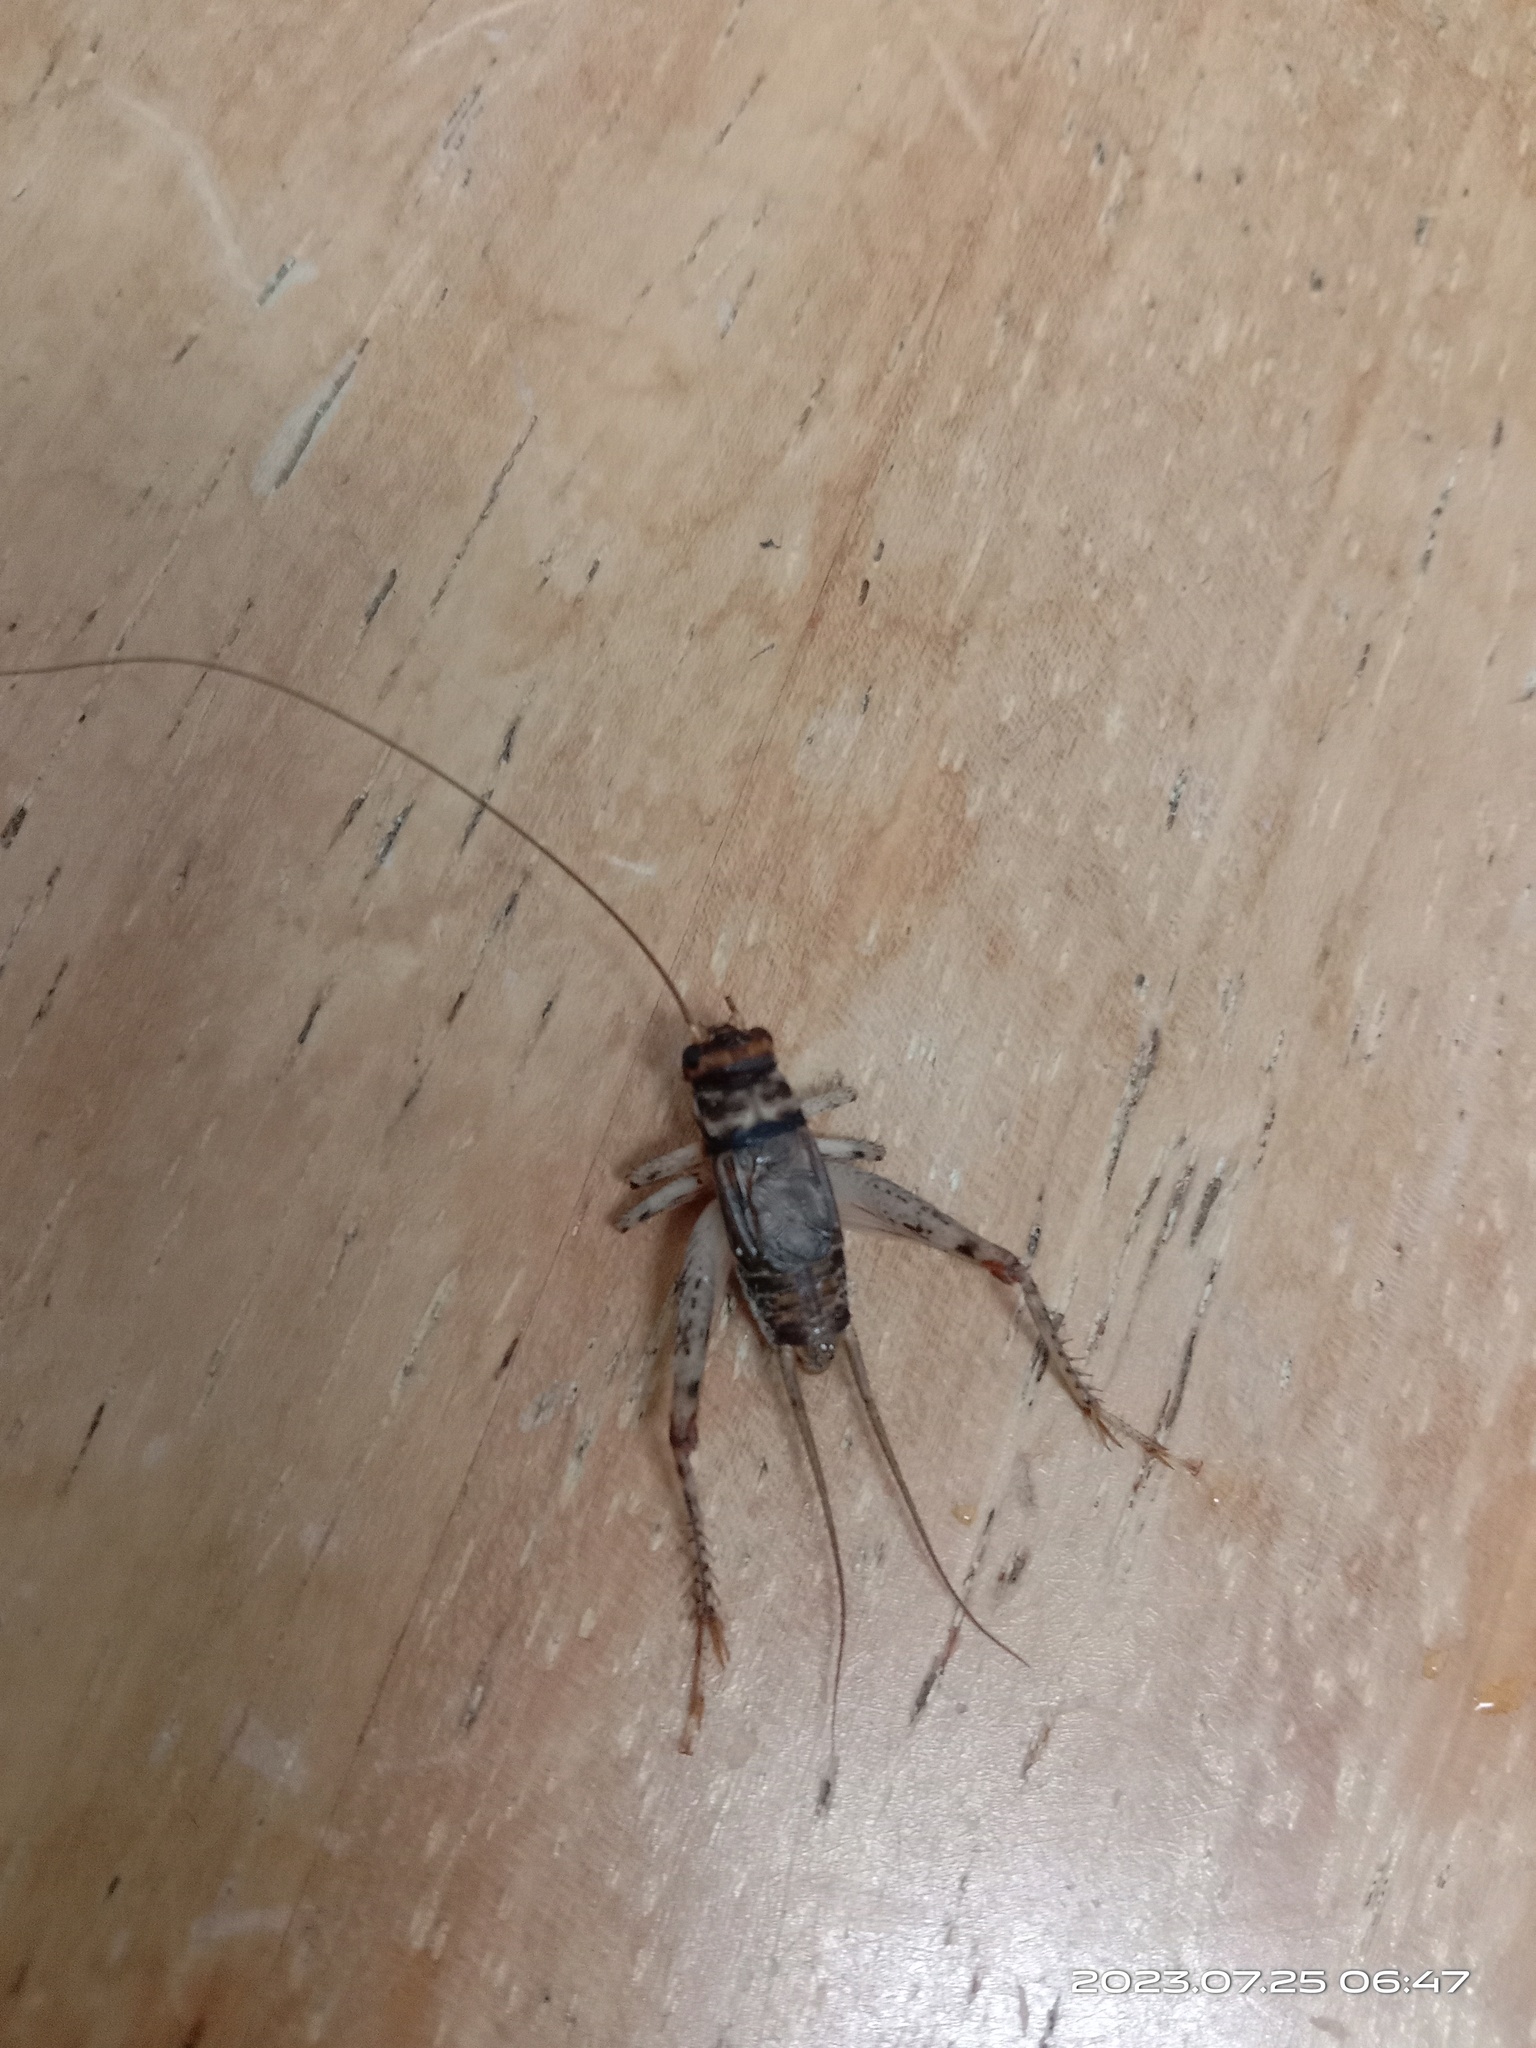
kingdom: Animalia
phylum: Arthropoda
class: Insecta
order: Orthoptera
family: Gryllidae
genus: Gryllodes
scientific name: Gryllodes sigillatus
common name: Tropical house cricket
